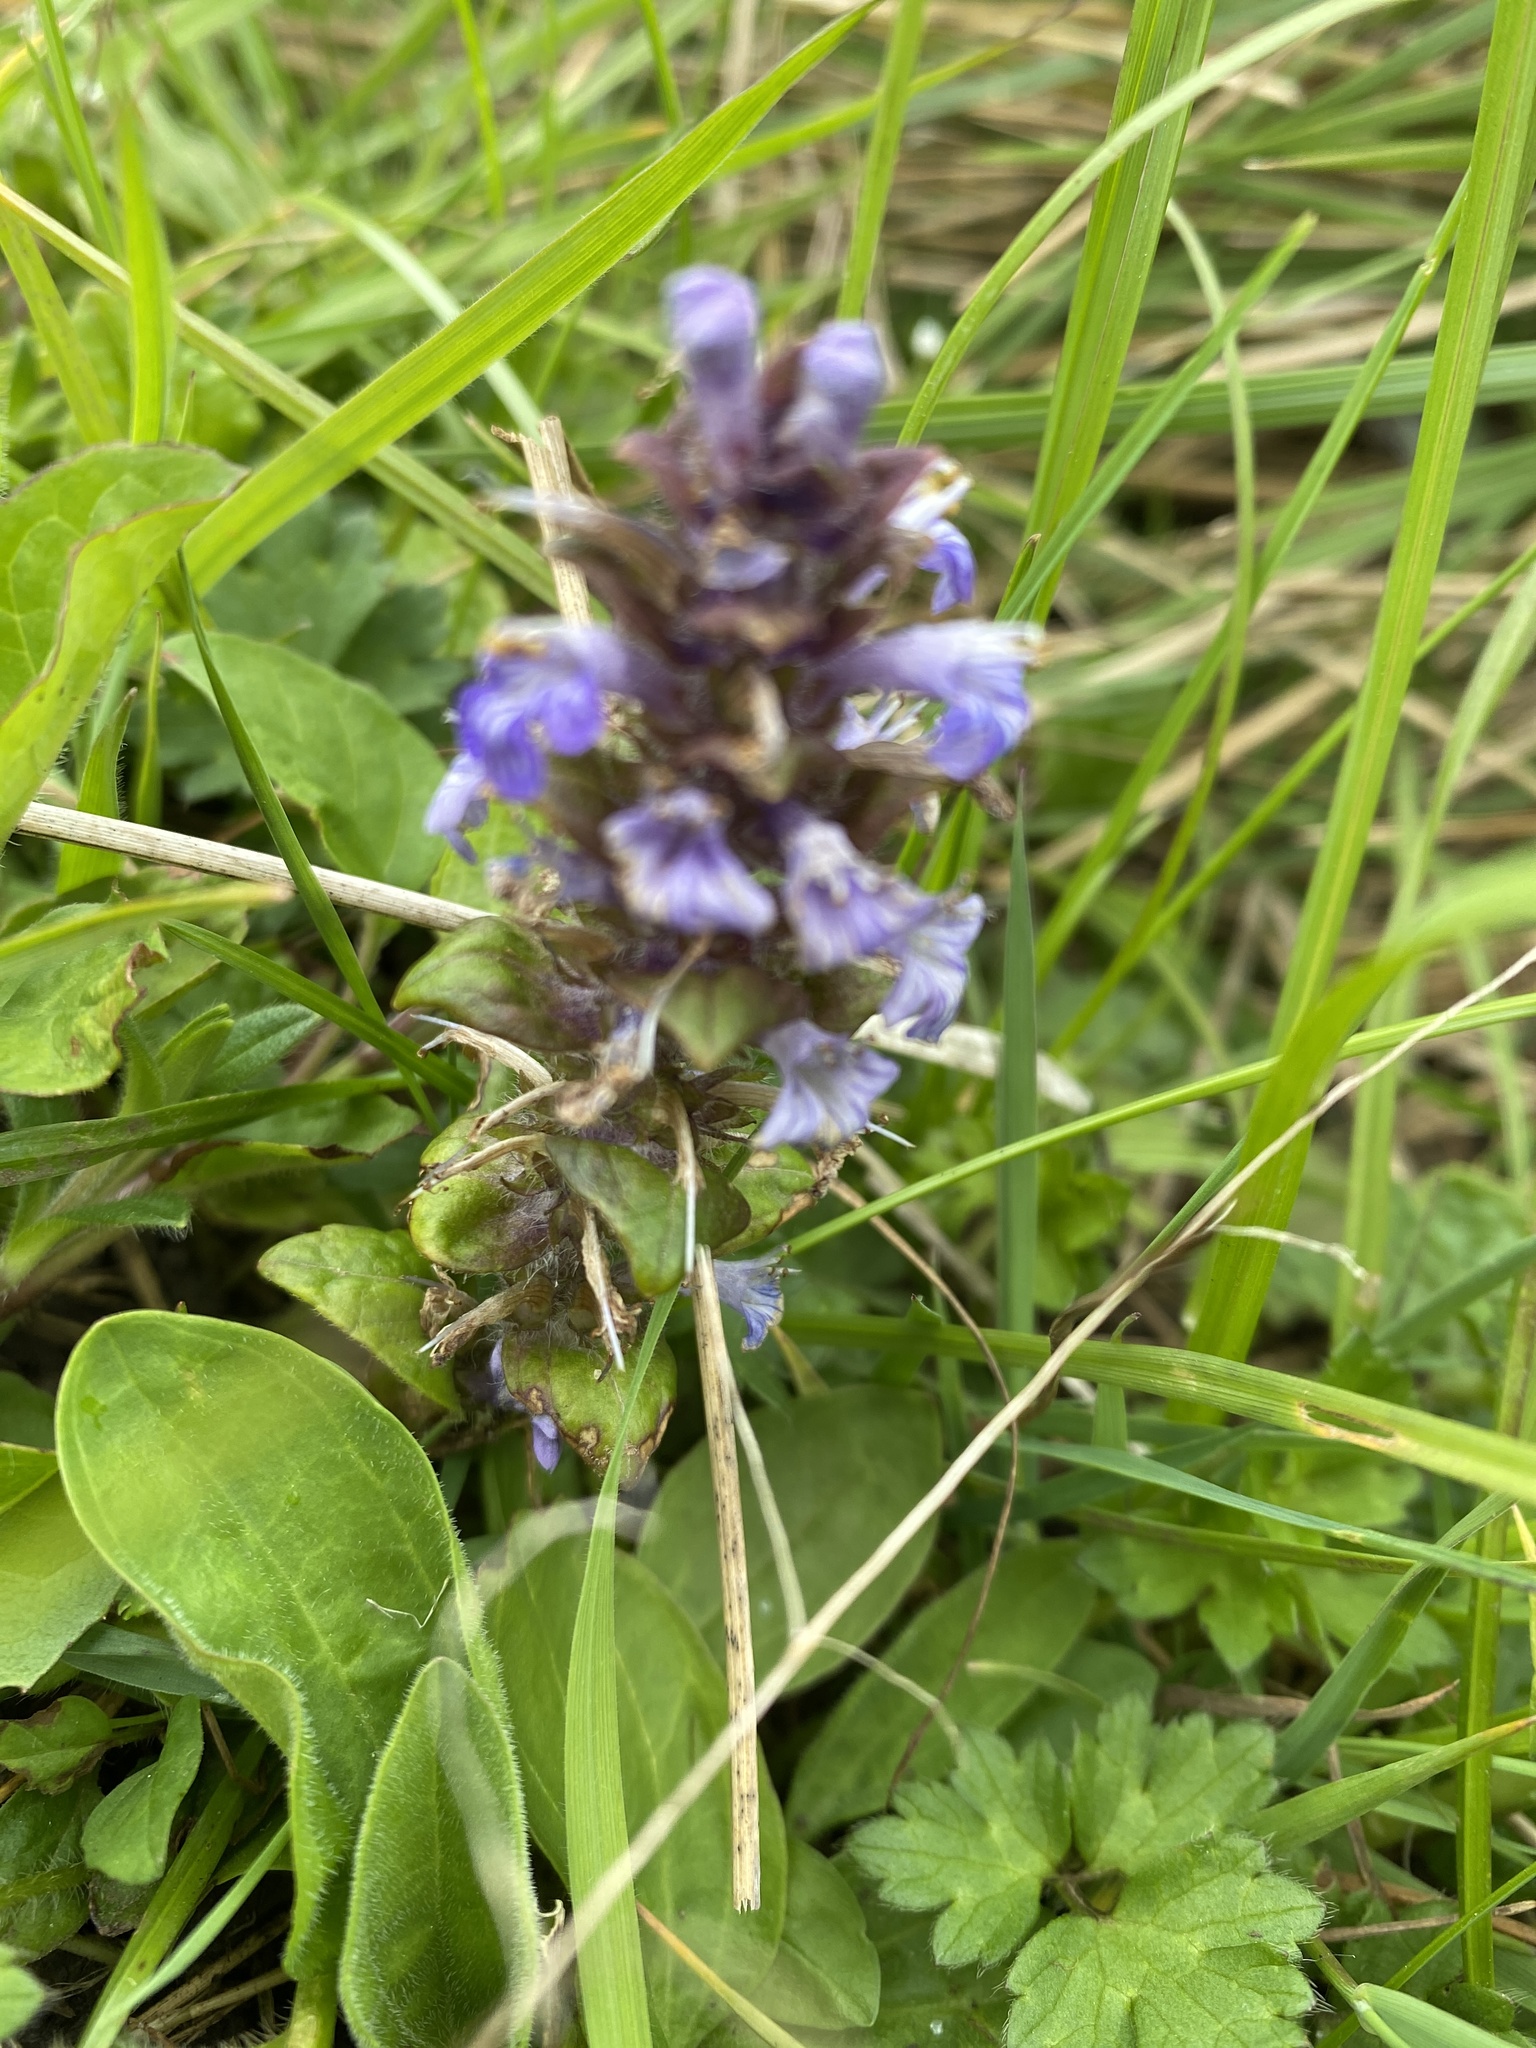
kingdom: Plantae
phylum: Tracheophyta
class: Magnoliopsida
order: Lamiales
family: Lamiaceae
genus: Ajuga
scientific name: Ajuga reptans
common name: Bugle
